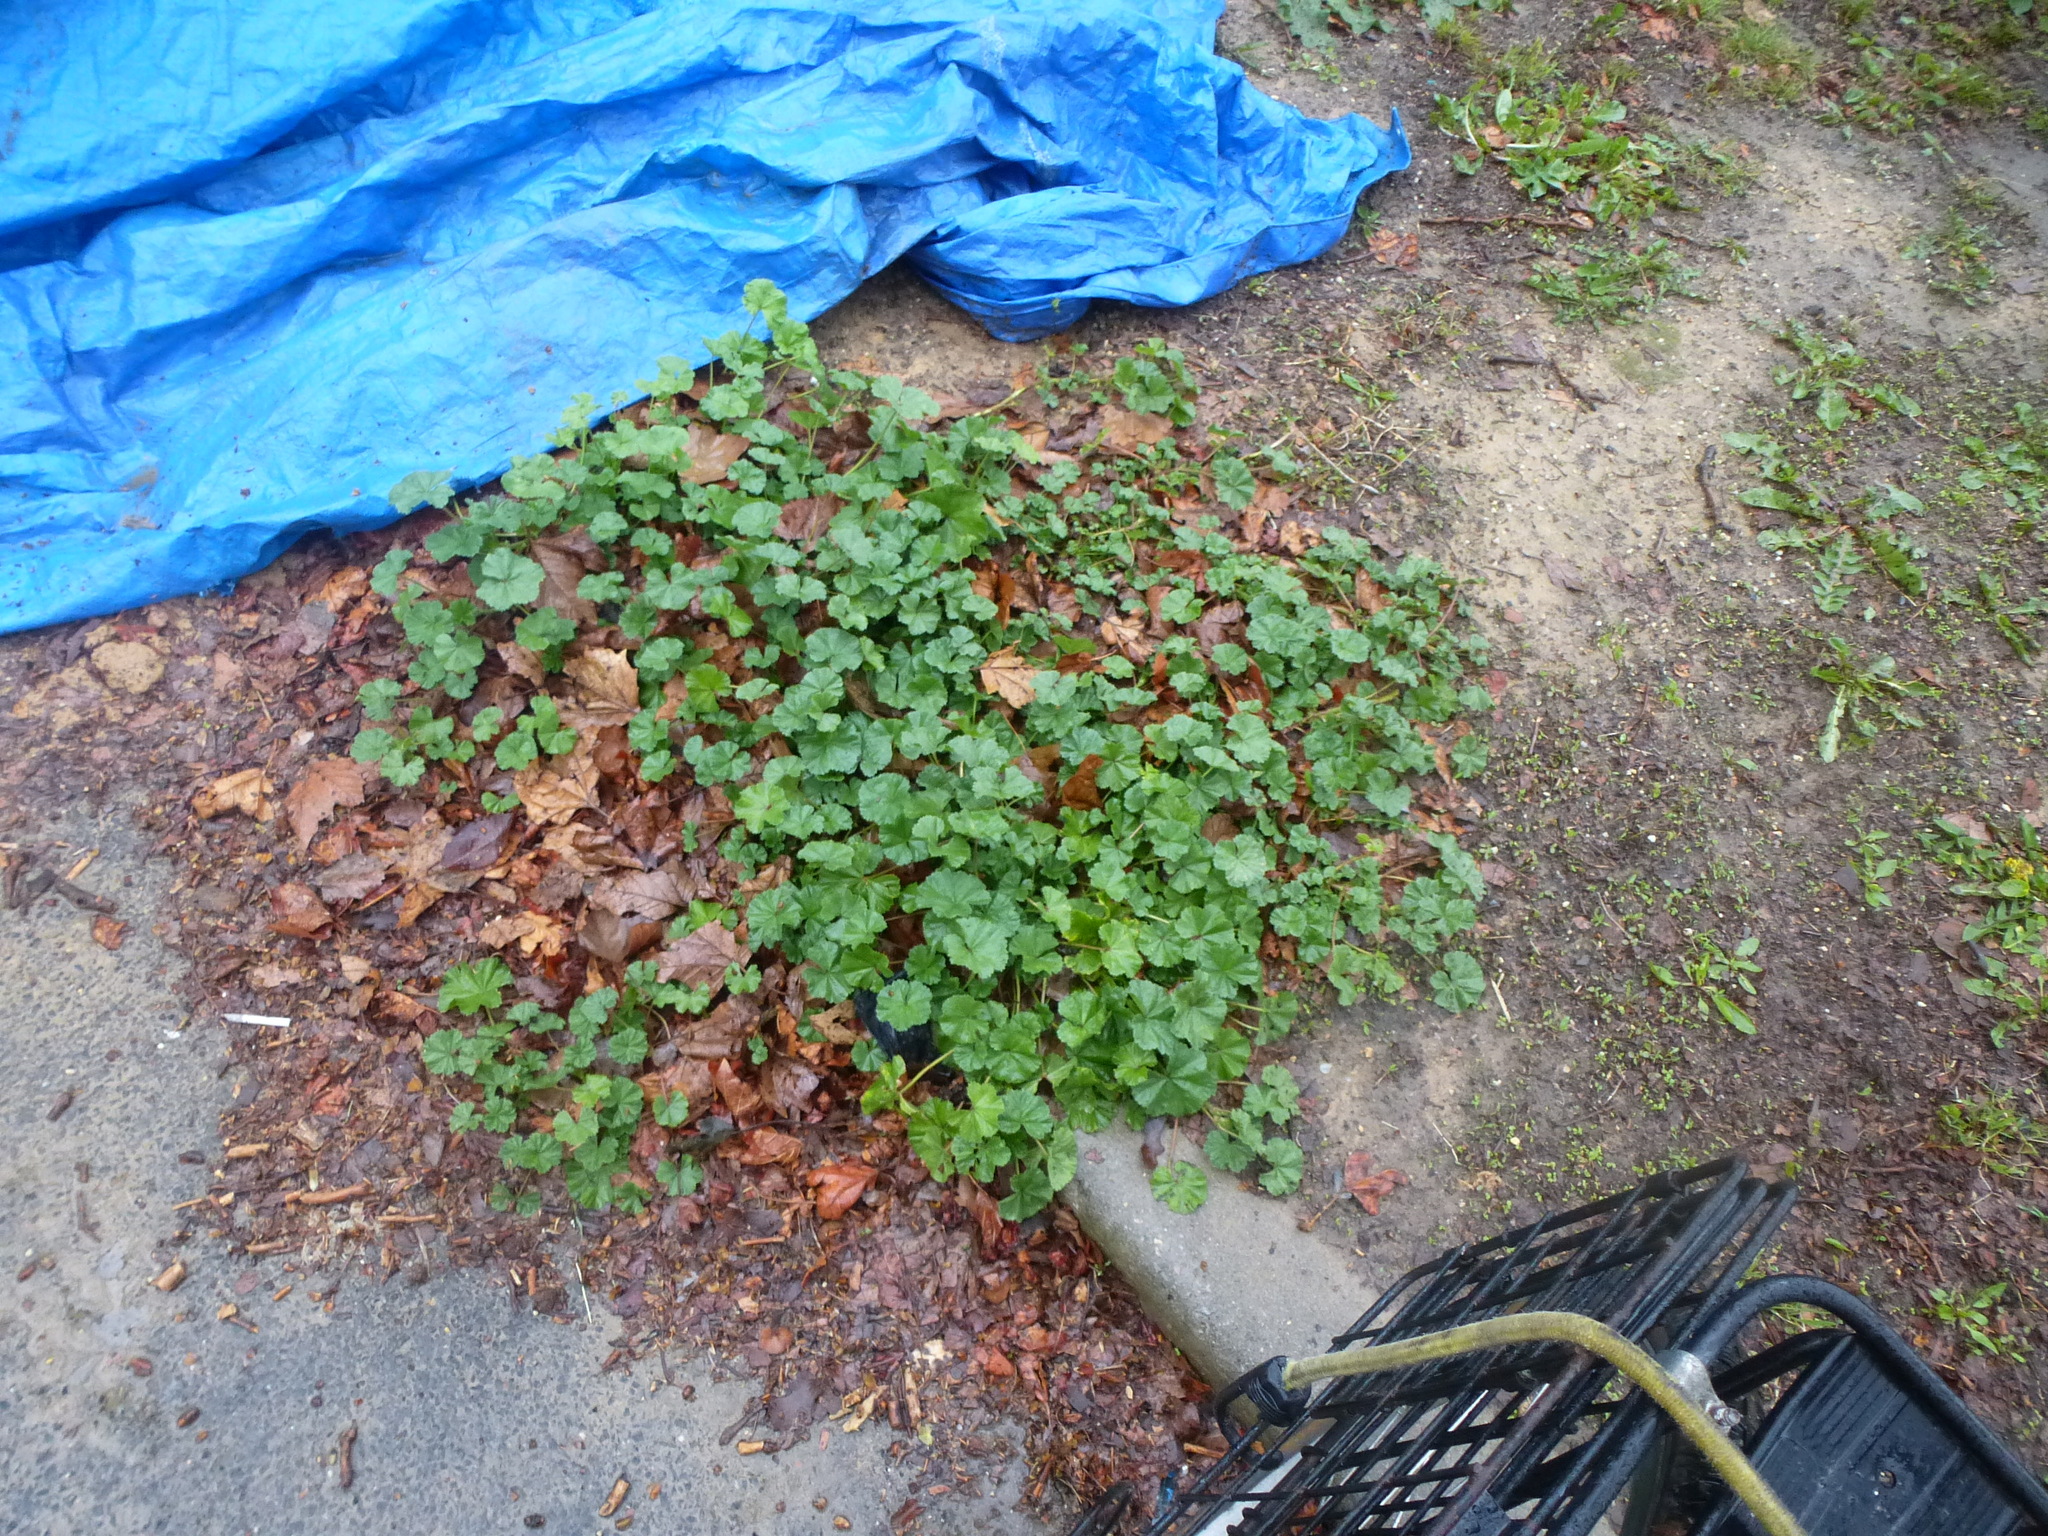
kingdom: Plantae
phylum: Tracheophyta
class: Magnoliopsida
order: Malvales
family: Malvaceae
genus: Malva
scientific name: Malva neglecta
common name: Common mallow
